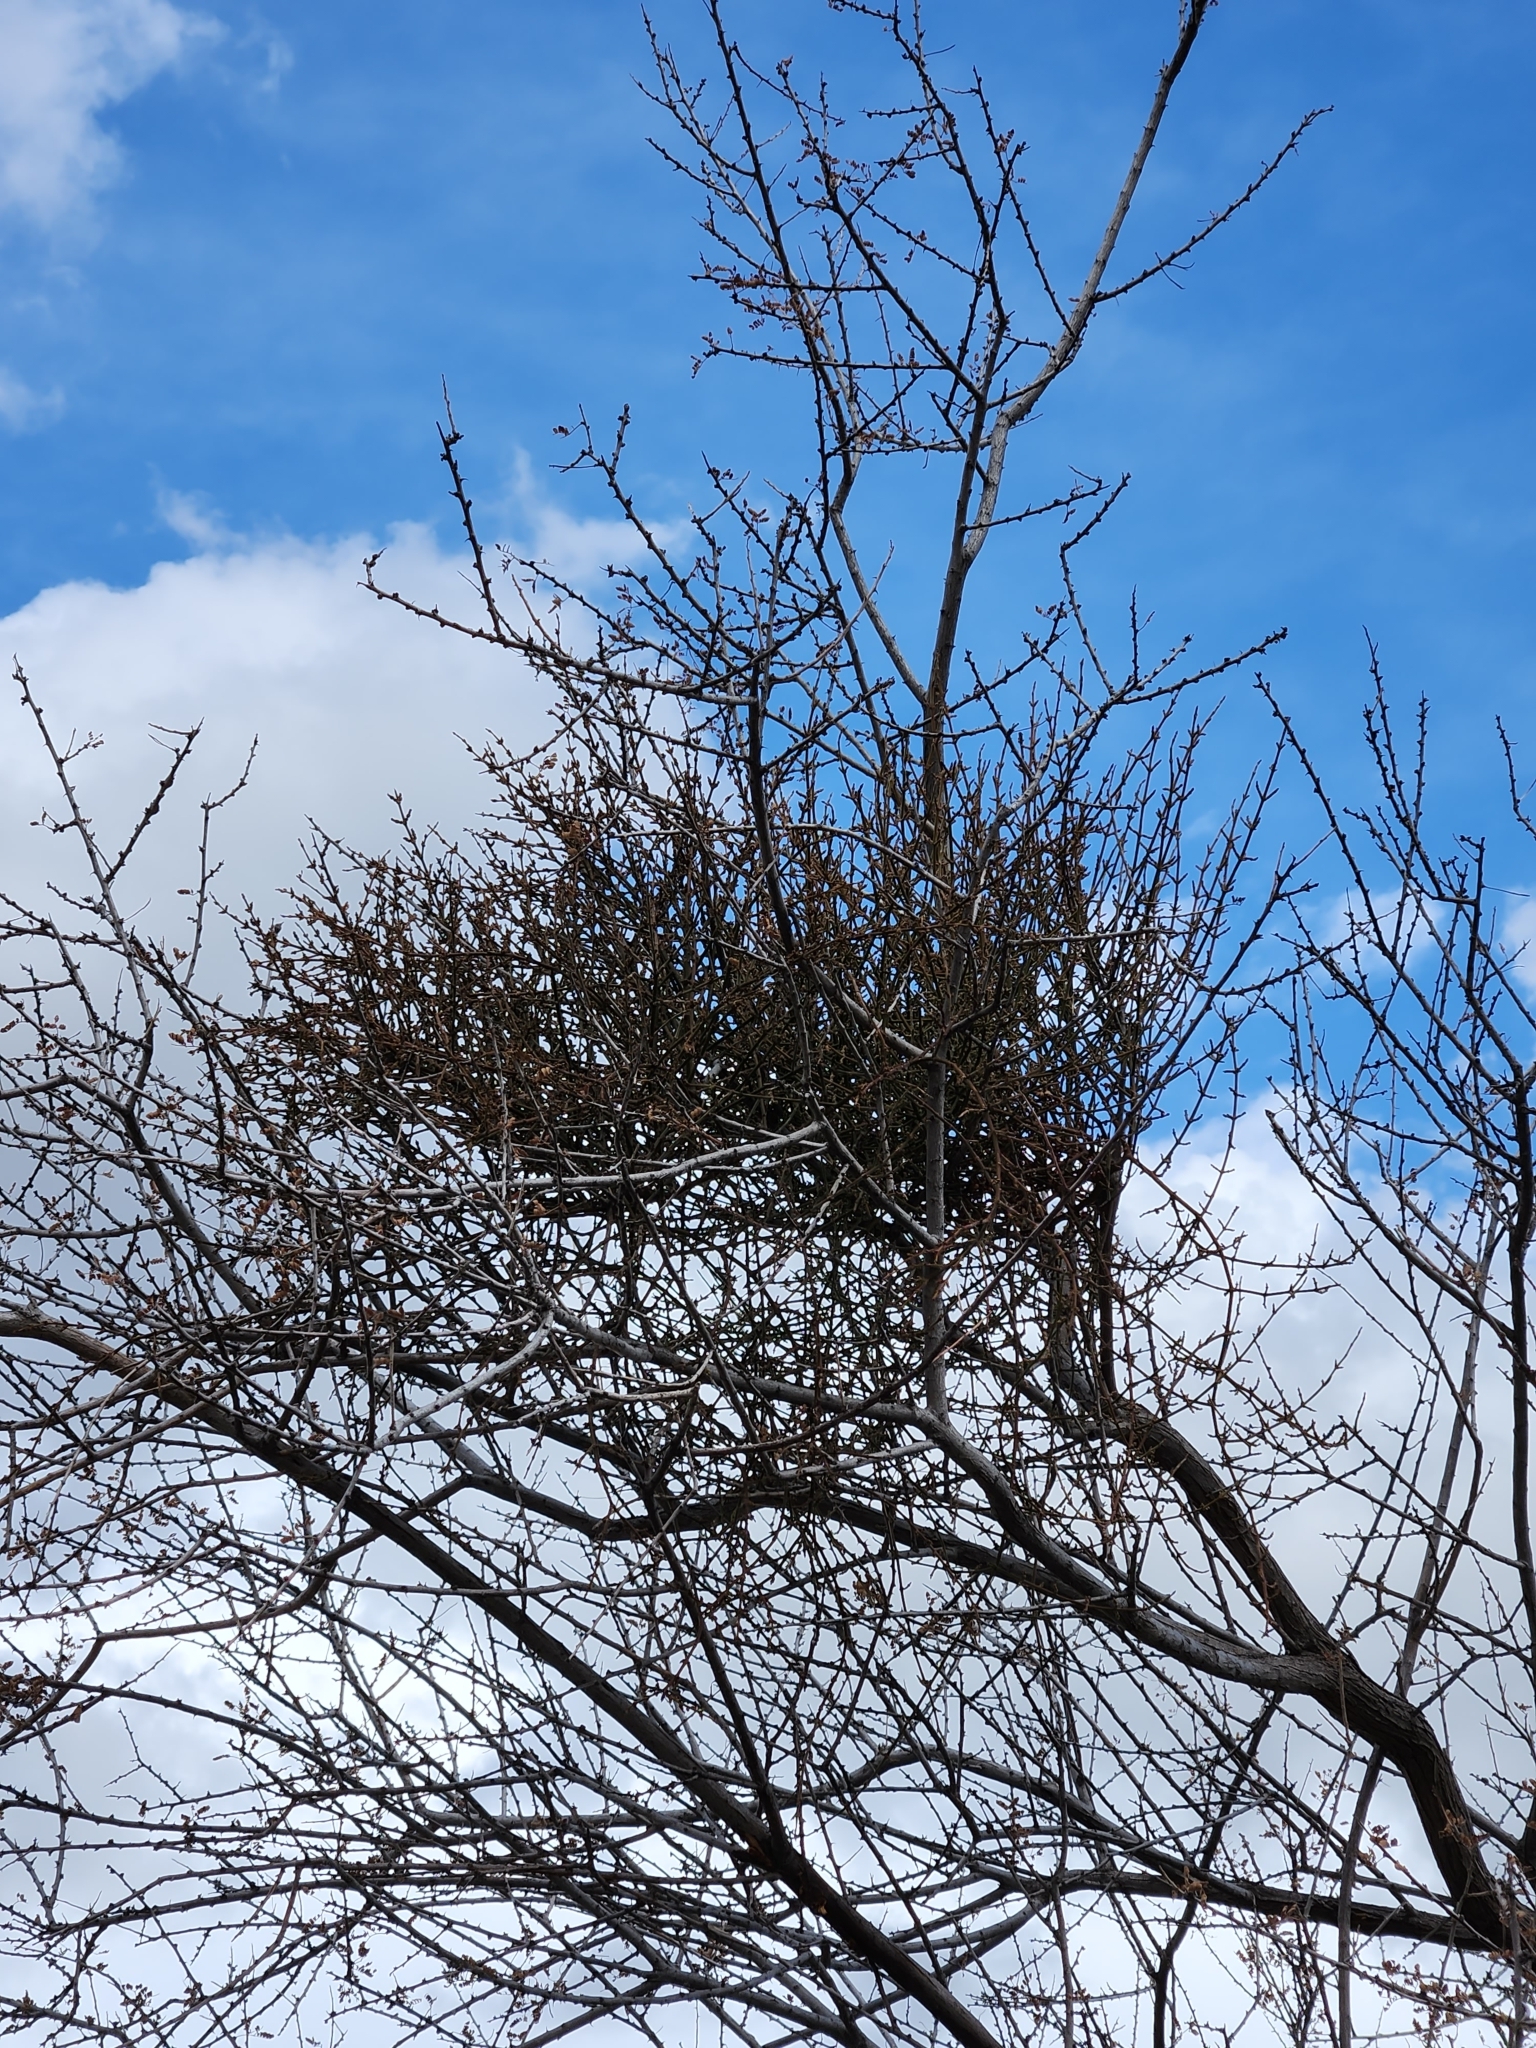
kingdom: Plantae
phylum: Tracheophyta
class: Magnoliopsida
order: Santalales
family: Viscaceae
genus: Phoradendron
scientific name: Phoradendron californicum
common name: Acacia mistletoe
